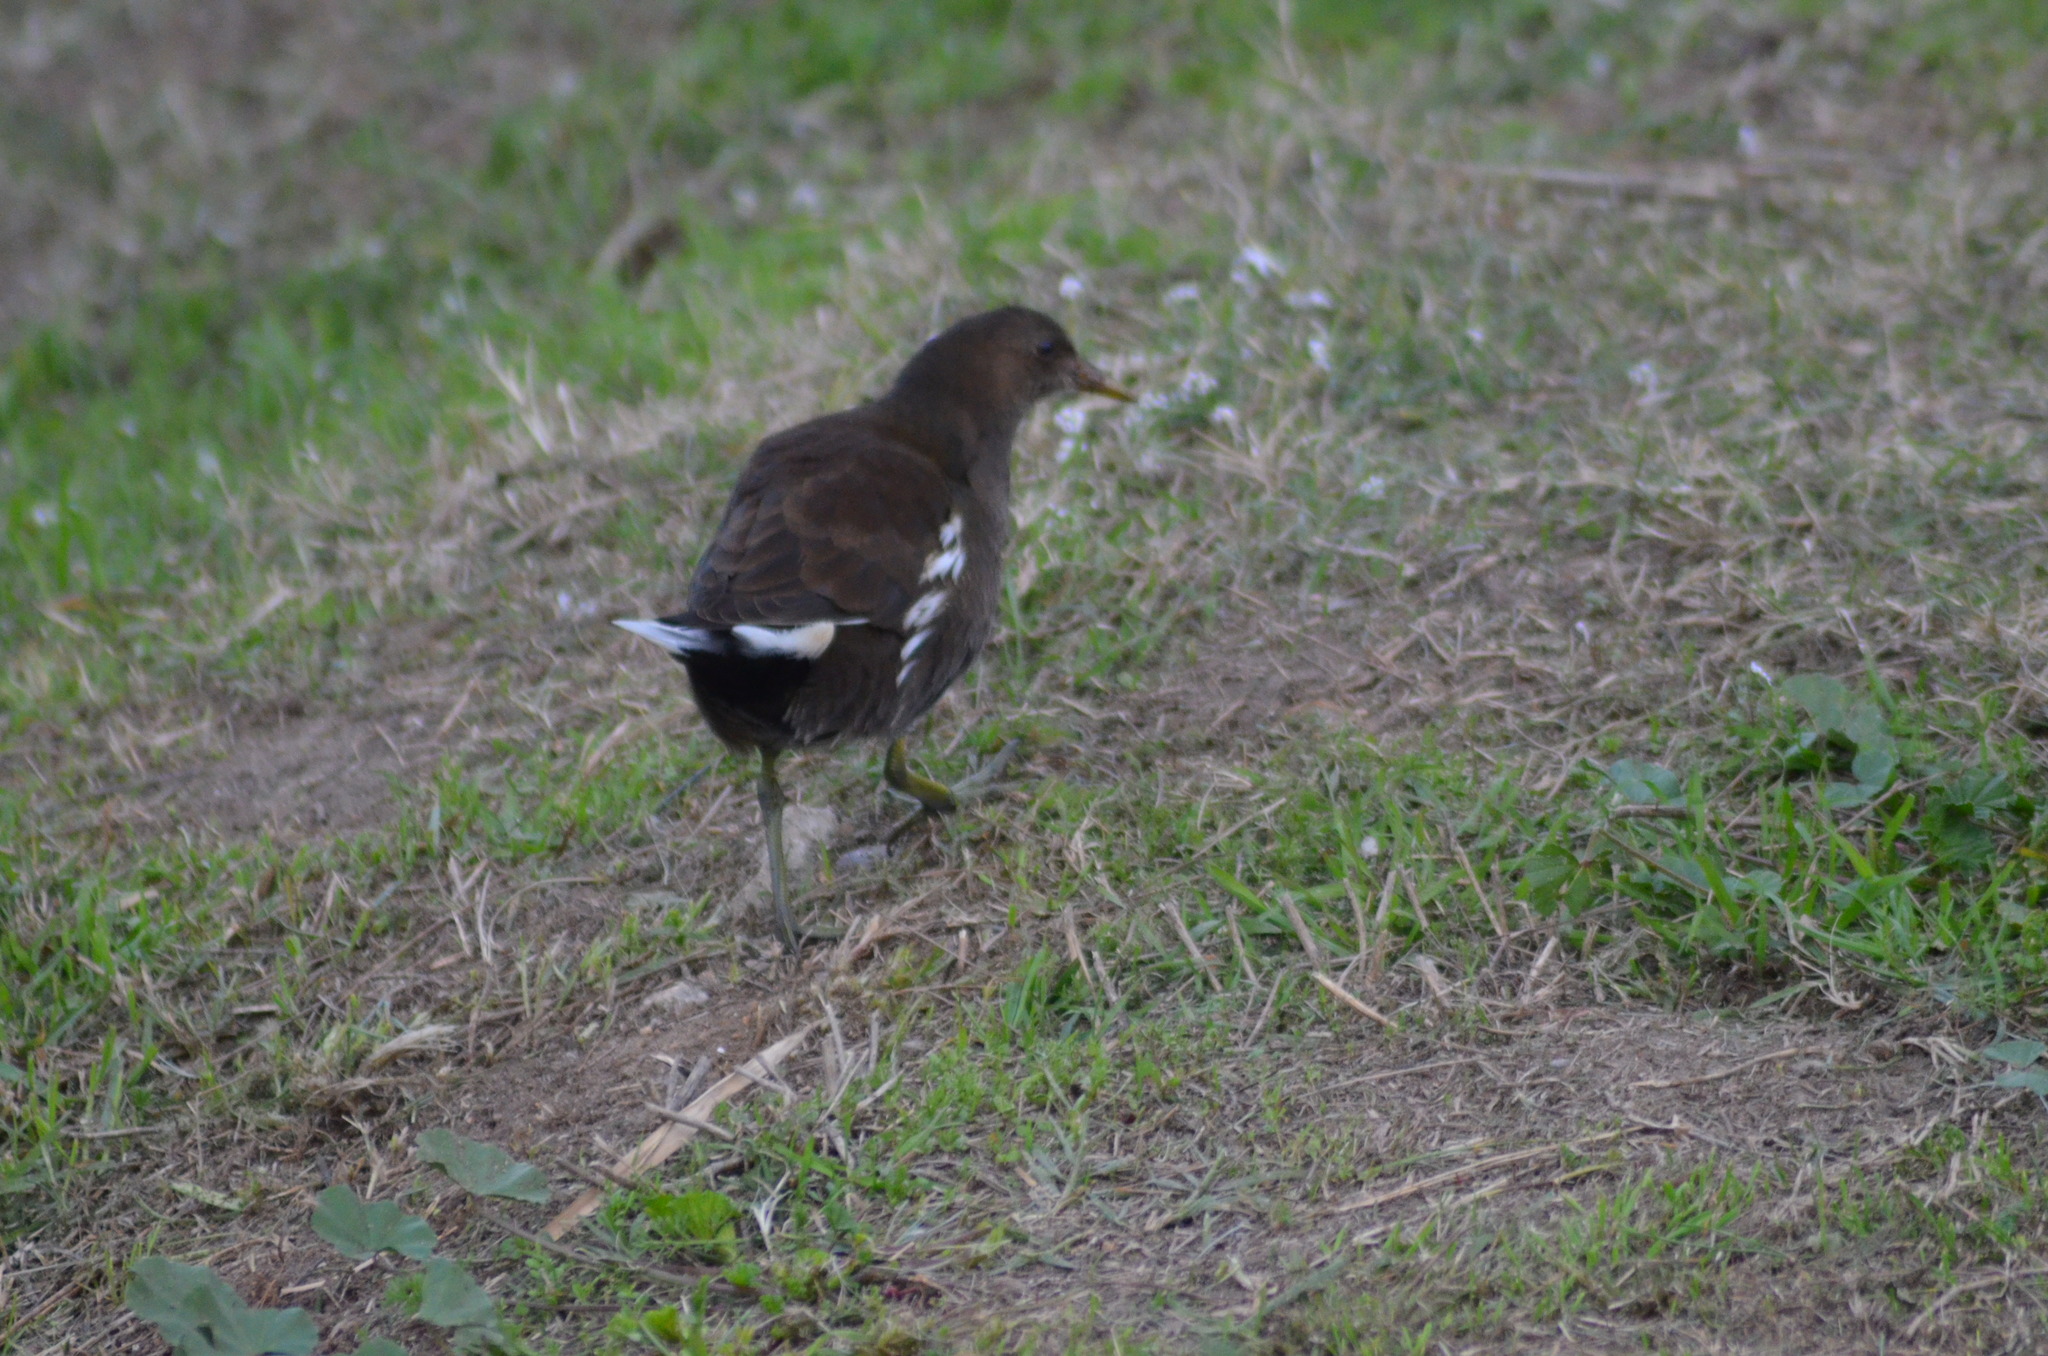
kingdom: Animalia
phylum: Chordata
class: Aves
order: Gruiformes
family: Rallidae
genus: Gallinula
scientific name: Gallinula chloropus
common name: Common moorhen
